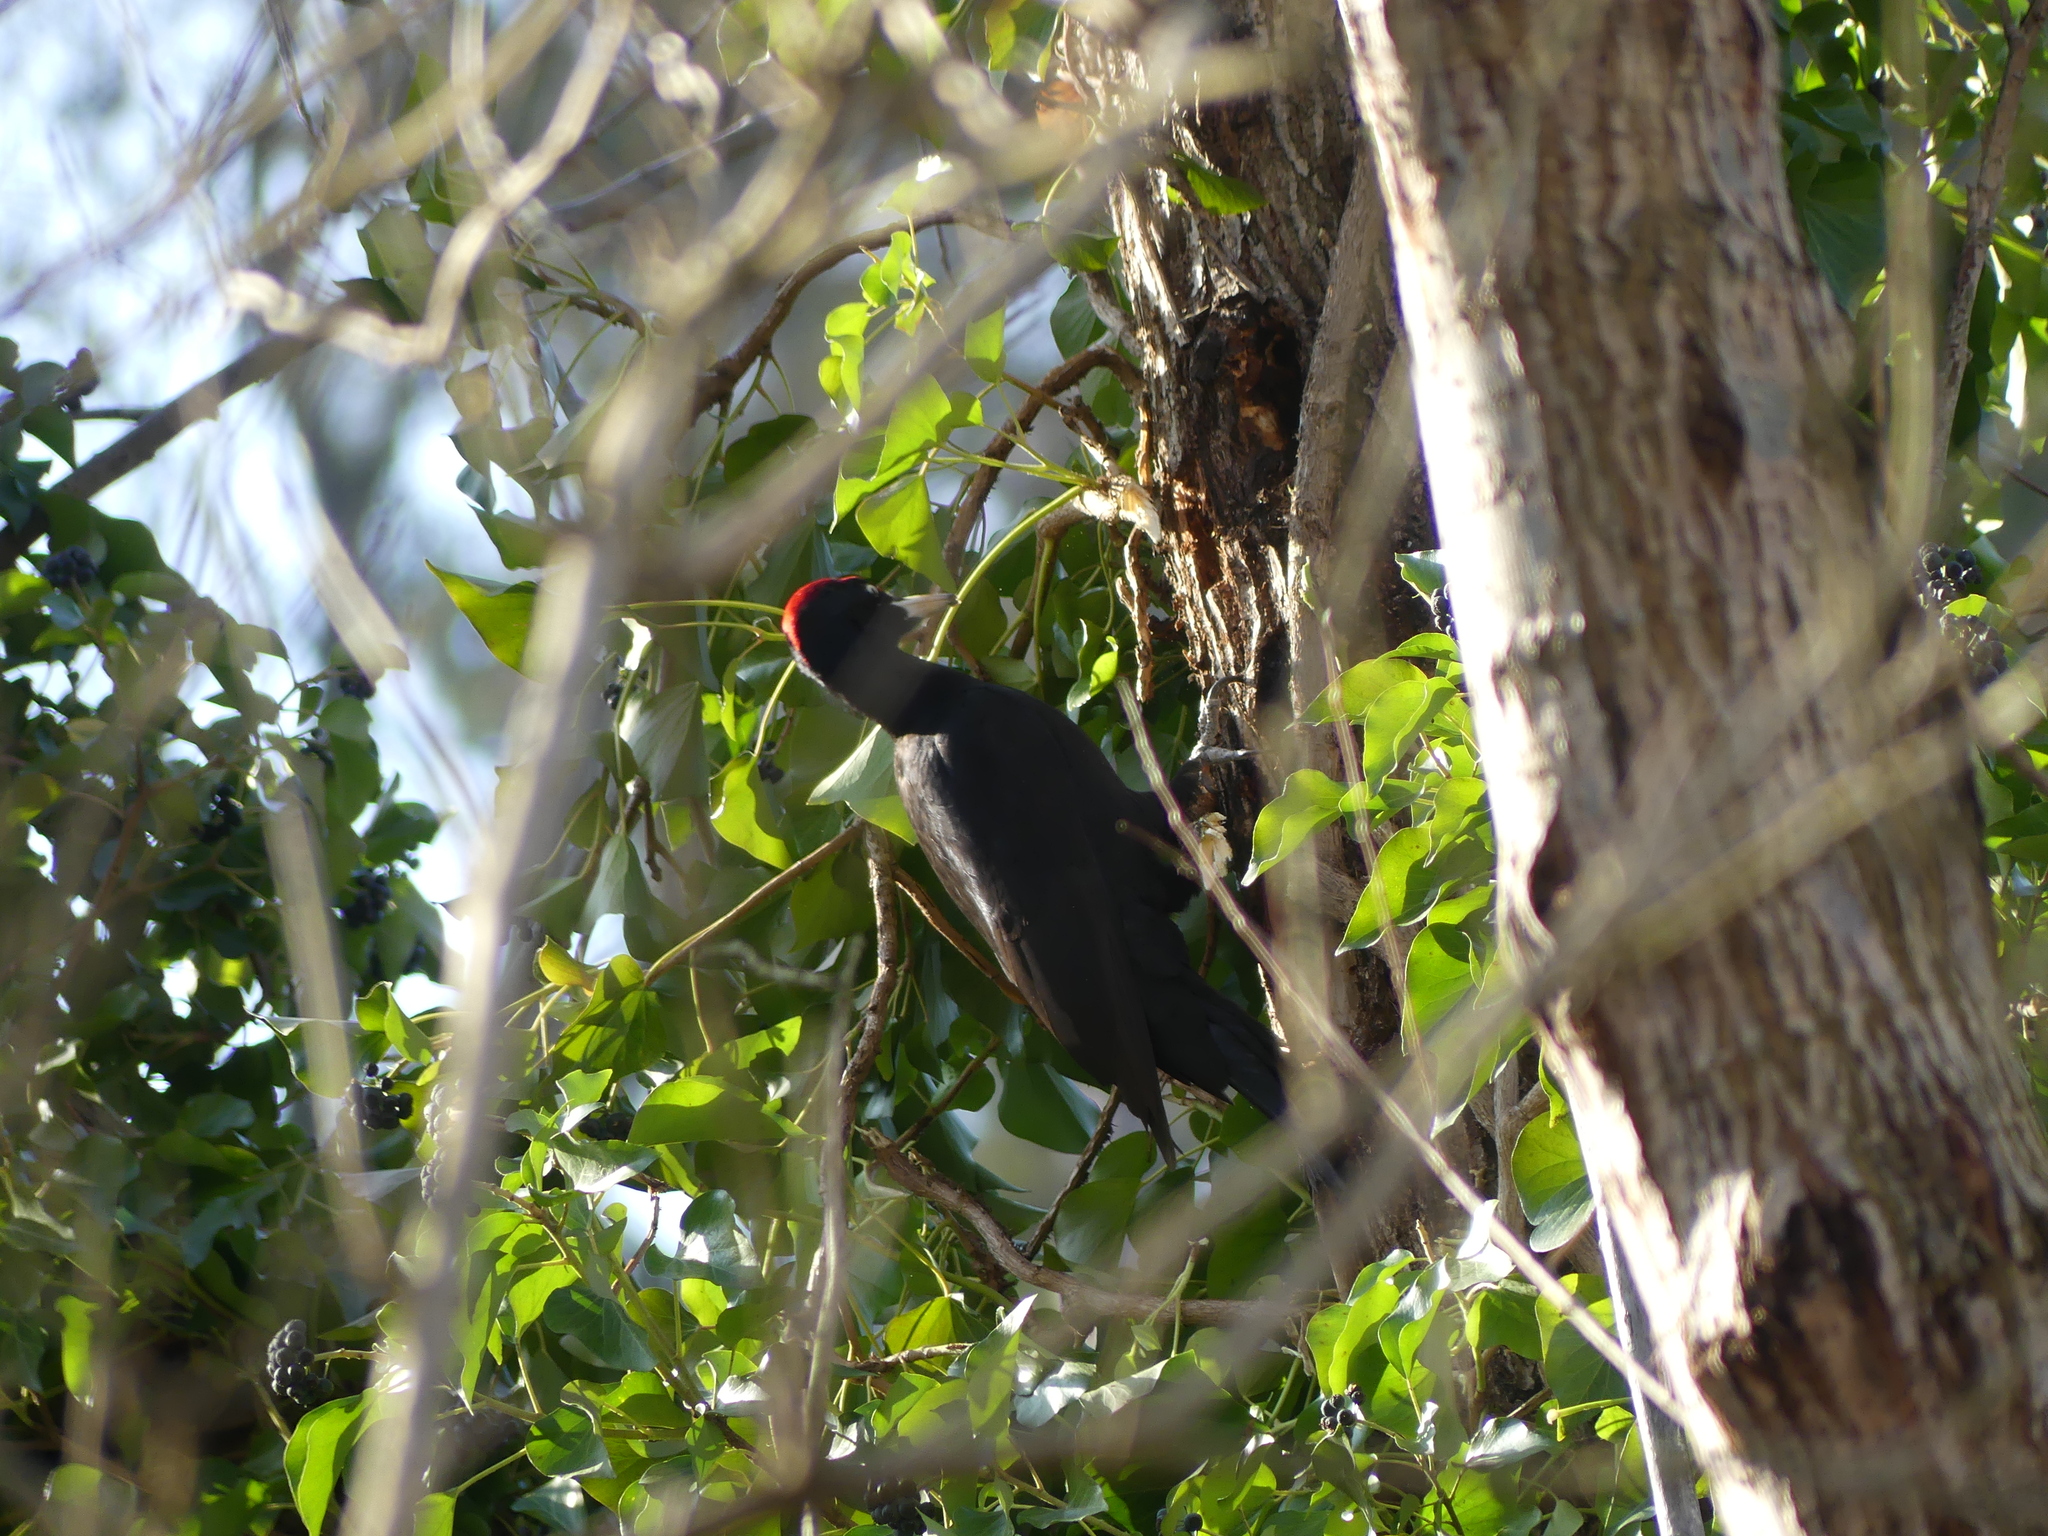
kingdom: Animalia
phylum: Chordata
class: Aves
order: Piciformes
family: Picidae
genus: Dryocopus
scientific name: Dryocopus martius
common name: Black woodpecker
